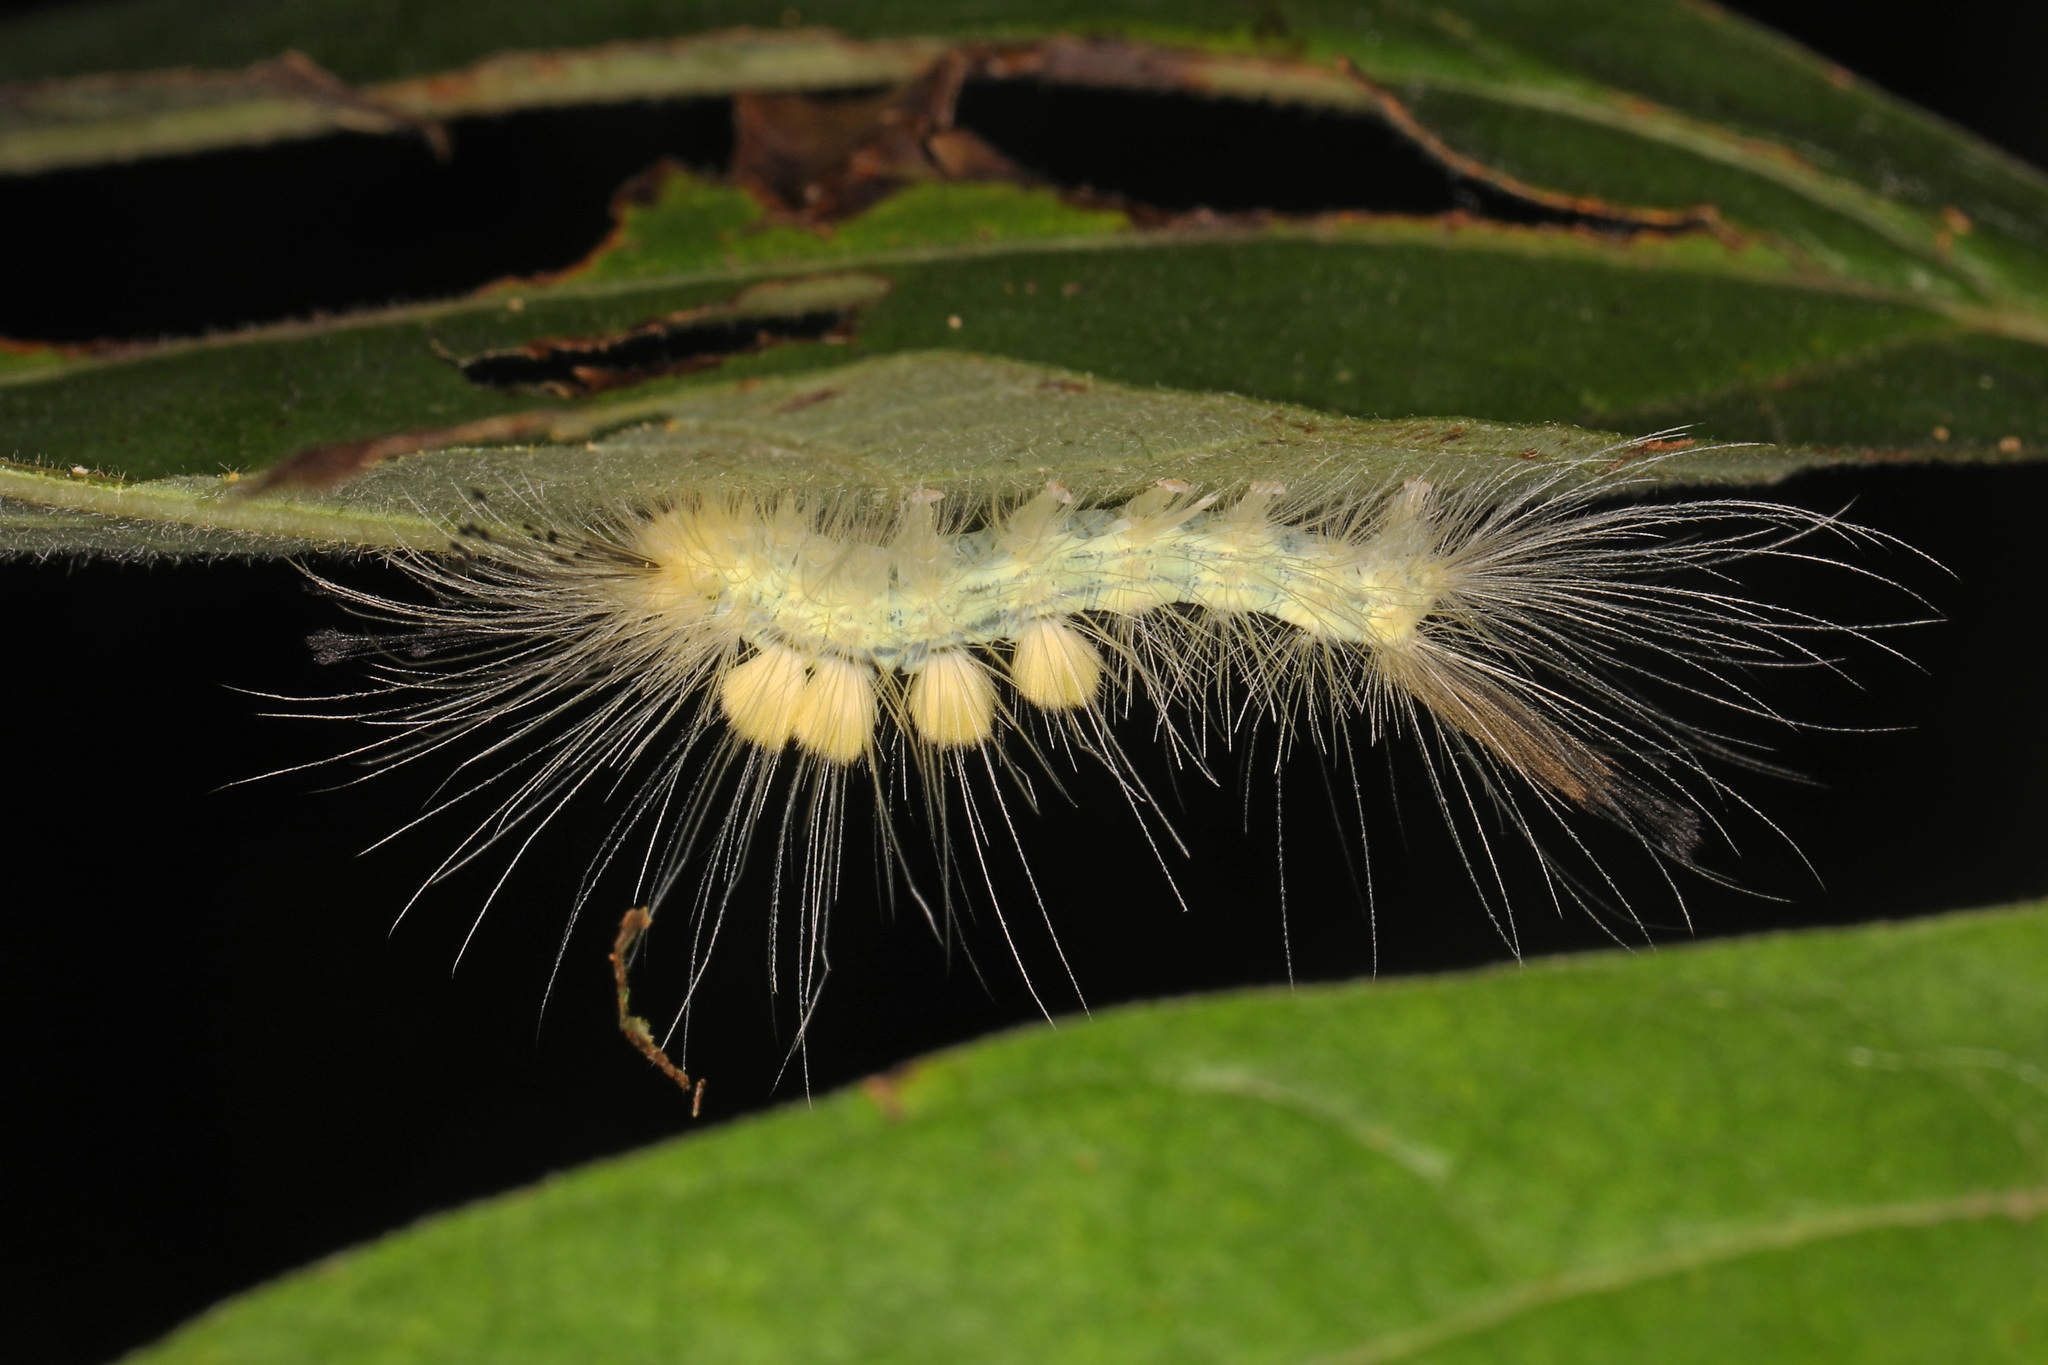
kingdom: Animalia
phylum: Arthropoda
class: Insecta
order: Lepidoptera
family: Erebidae
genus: Orgyia
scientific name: Orgyia definita
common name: Definite tussock moth
